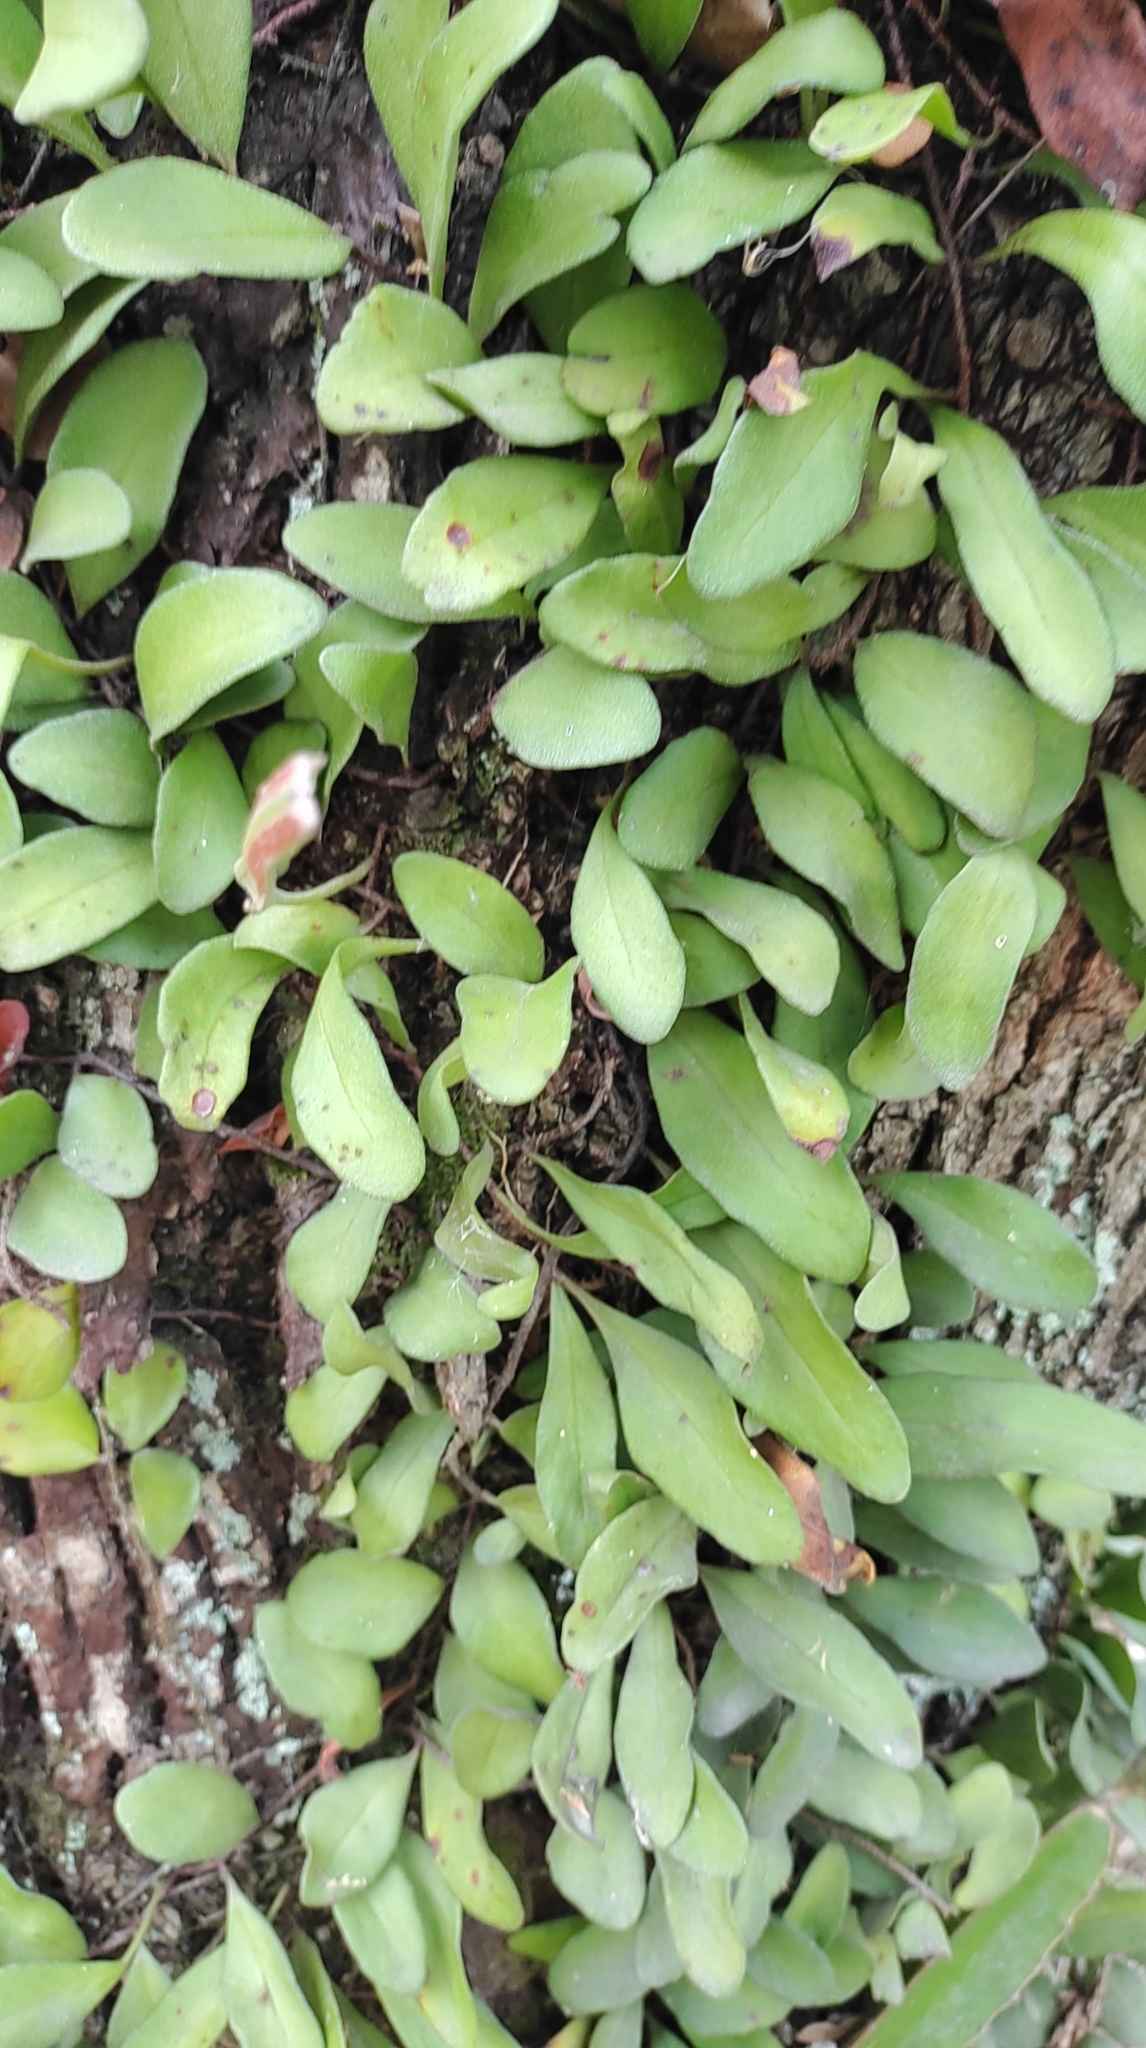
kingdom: Plantae
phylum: Tracheophyta
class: Polypodiopsida
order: Polypodiales
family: Polypodiaceae
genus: Pyrrosia
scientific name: Pyrrosia lanceolata
